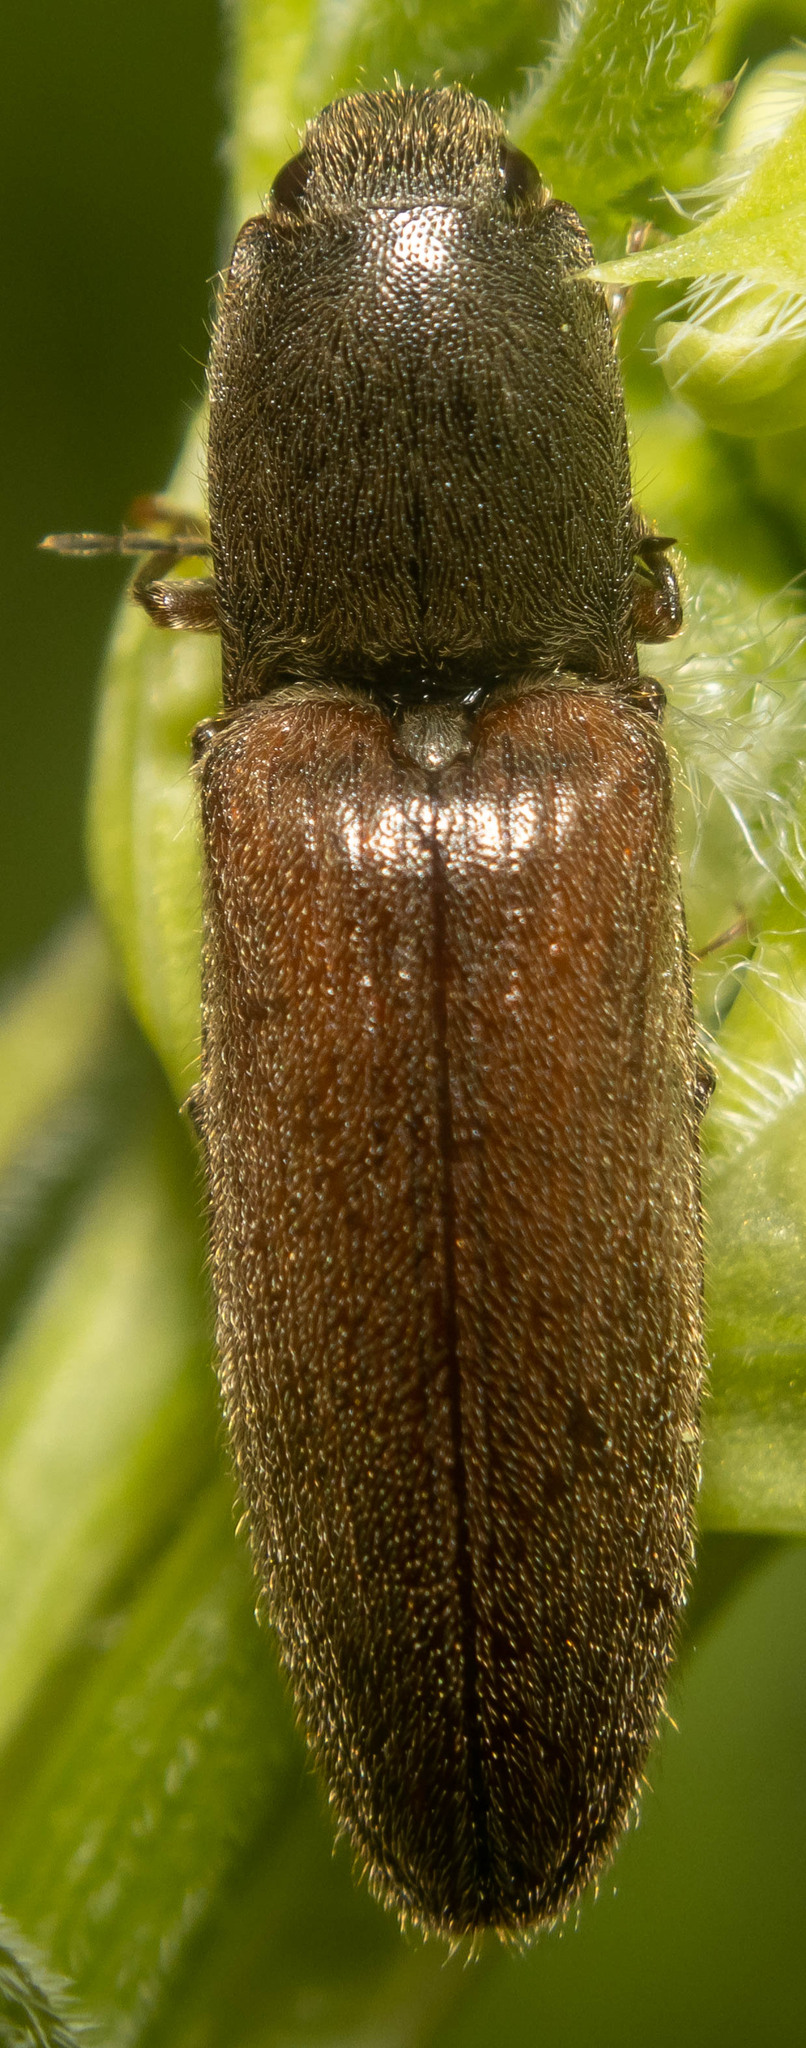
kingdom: Animalia
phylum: Arthropoda
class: Insecta
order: Coleoptera
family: Elateridae
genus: Athous
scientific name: Athous haemorrhoidalis
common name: Red-brown click beetle
